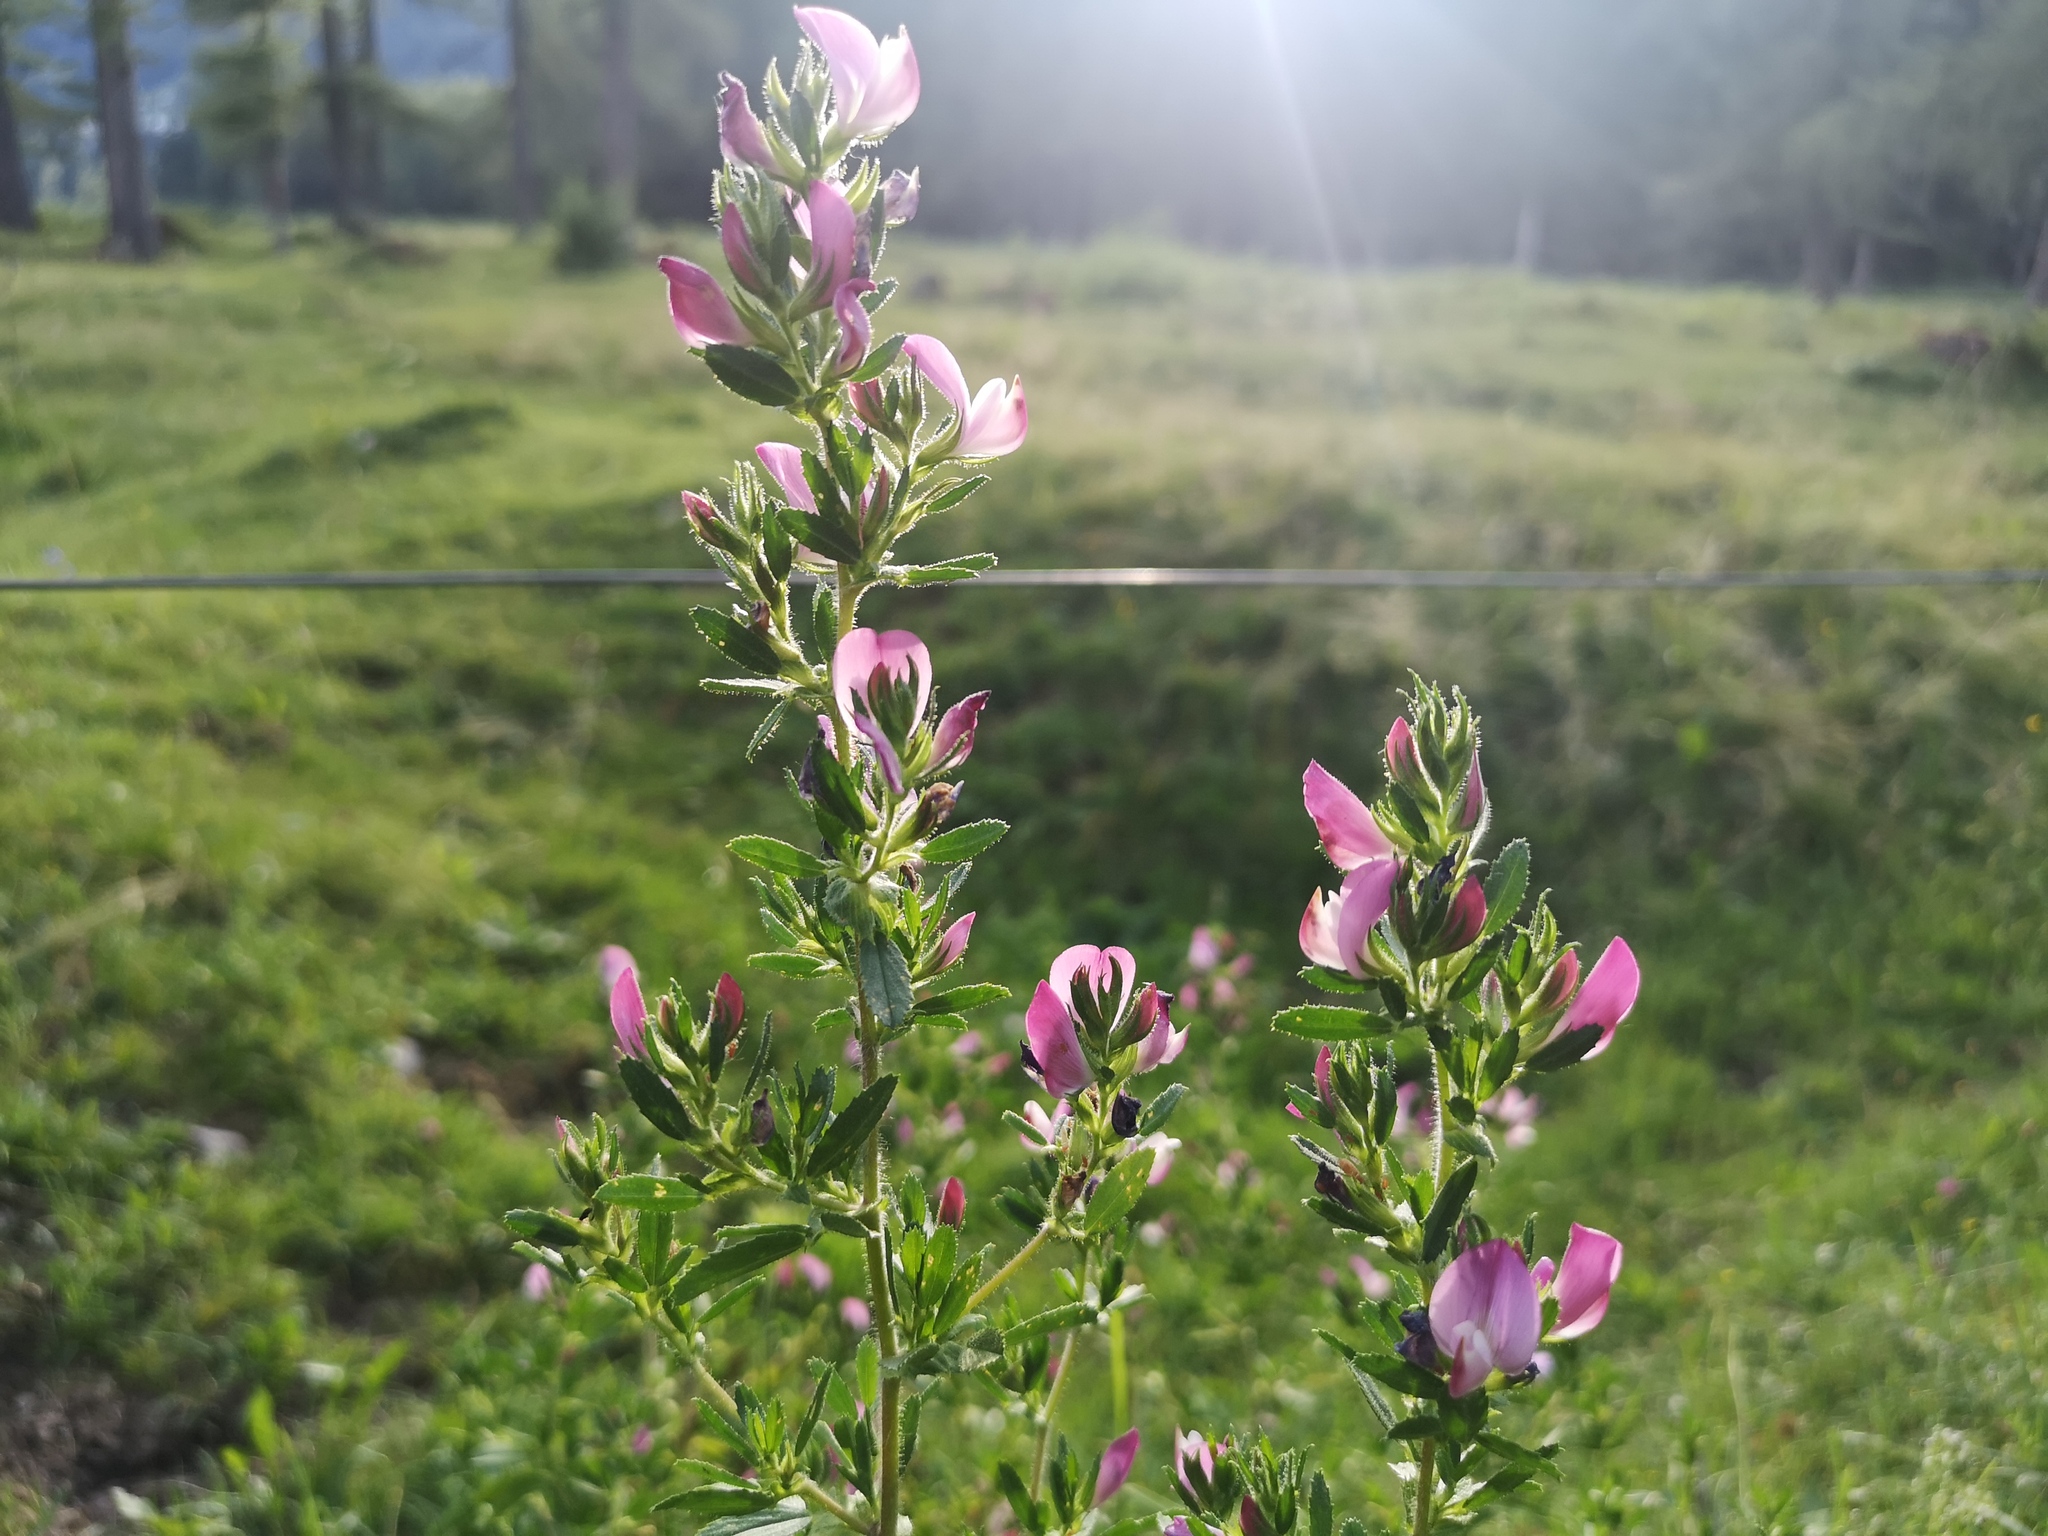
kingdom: Plantae
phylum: Tracheophyta
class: Magnoliopsida
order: Fabales
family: Fabaceae
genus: Ononis
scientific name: Ononis spinosa
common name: Spiny restharrow
